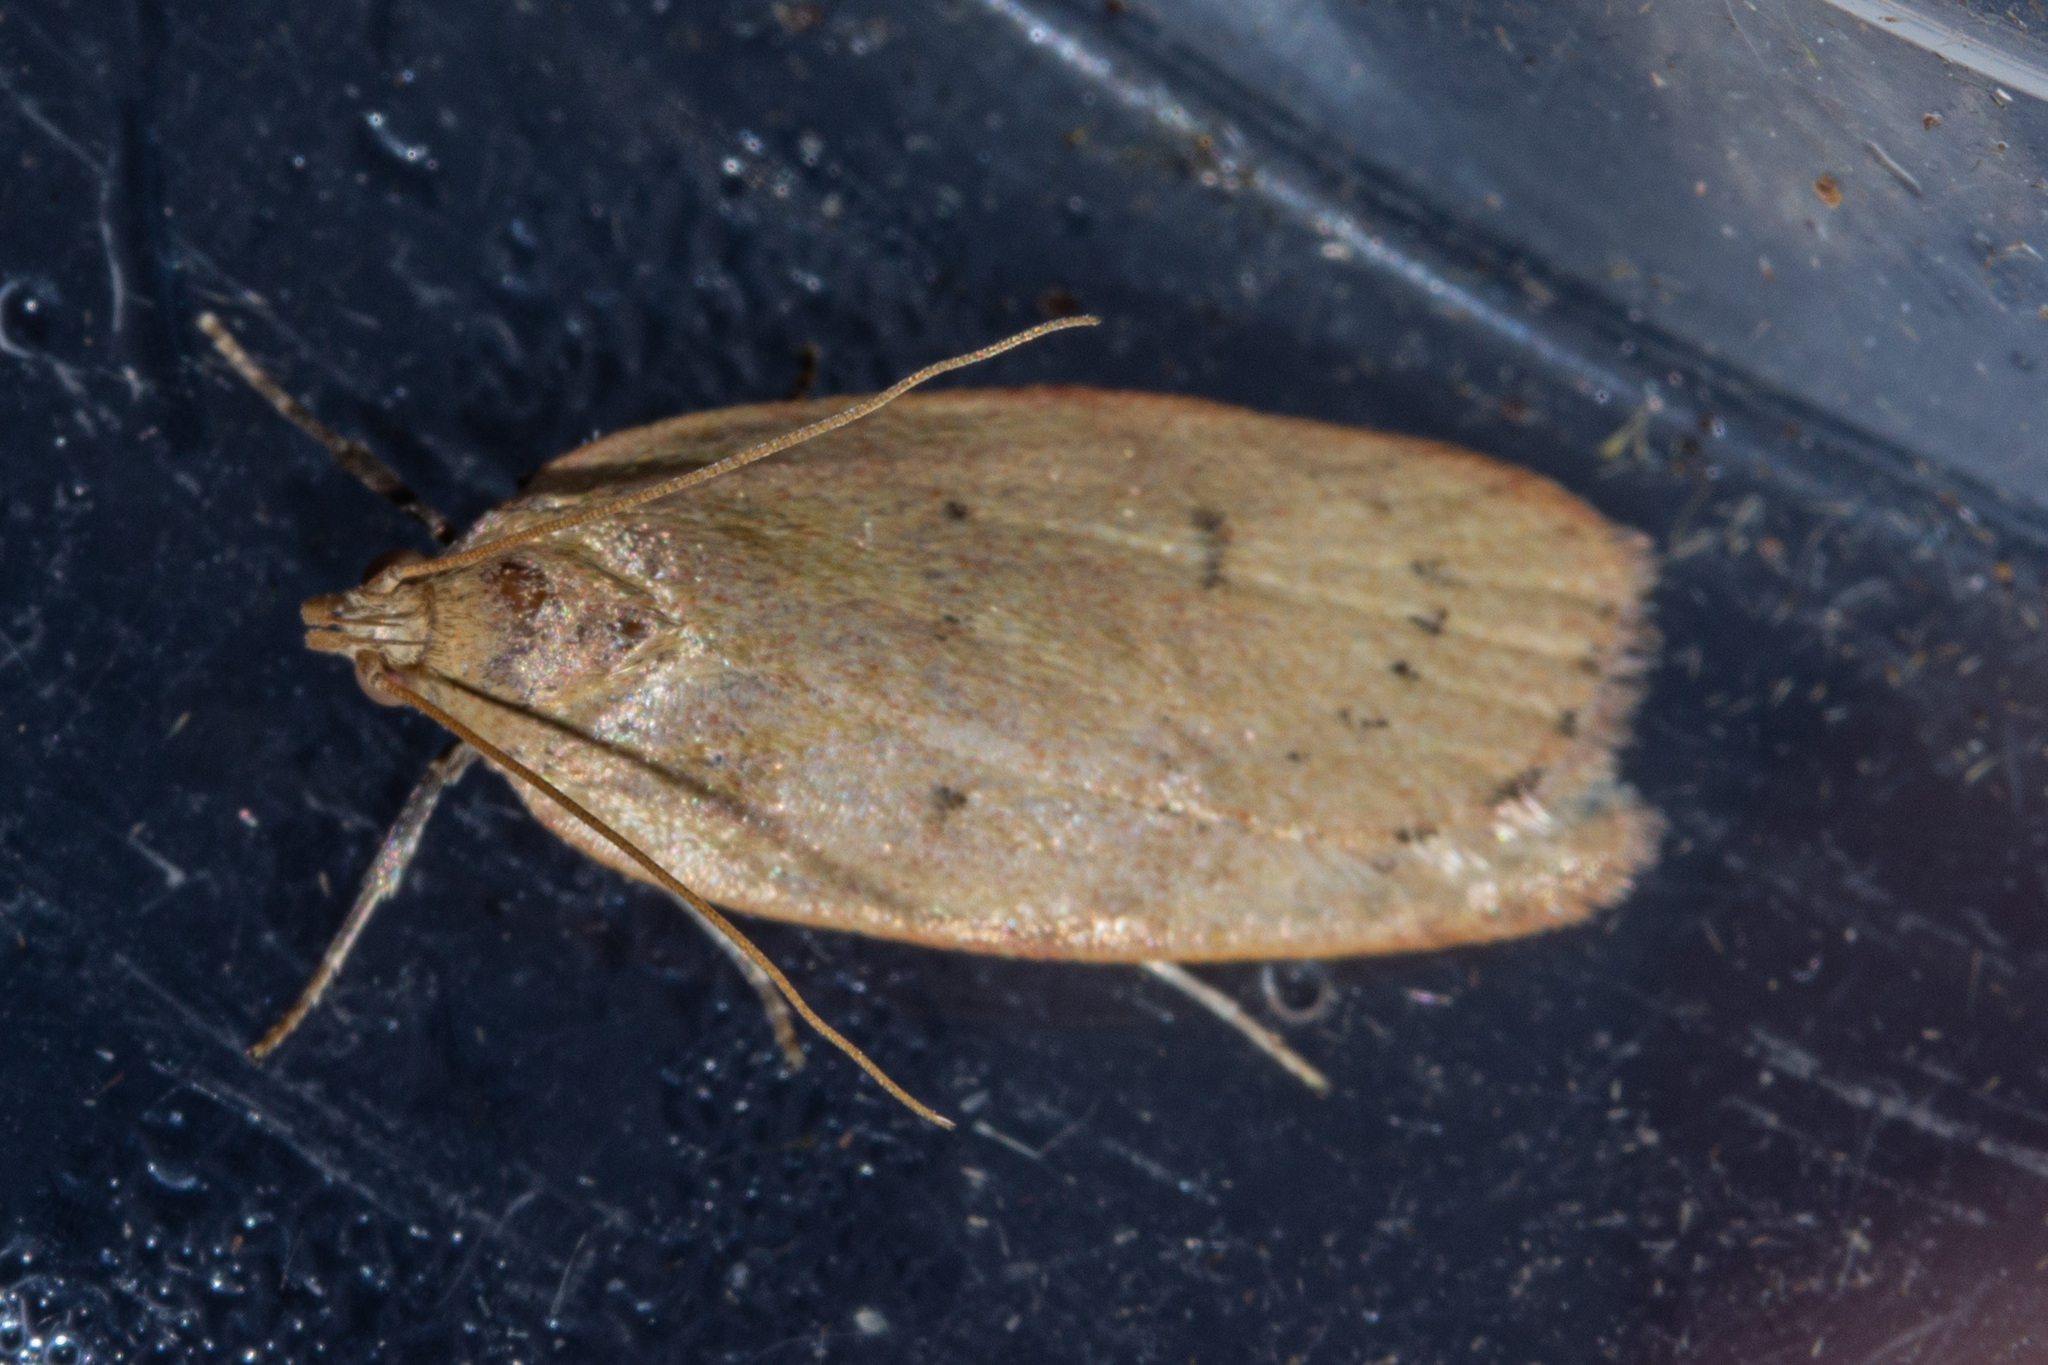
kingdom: Animalia
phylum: Arthropoda
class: Insecta
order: Lepidoptera
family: Depressariidae
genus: Phaeosaces
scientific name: Phaeosaces coarctatella
